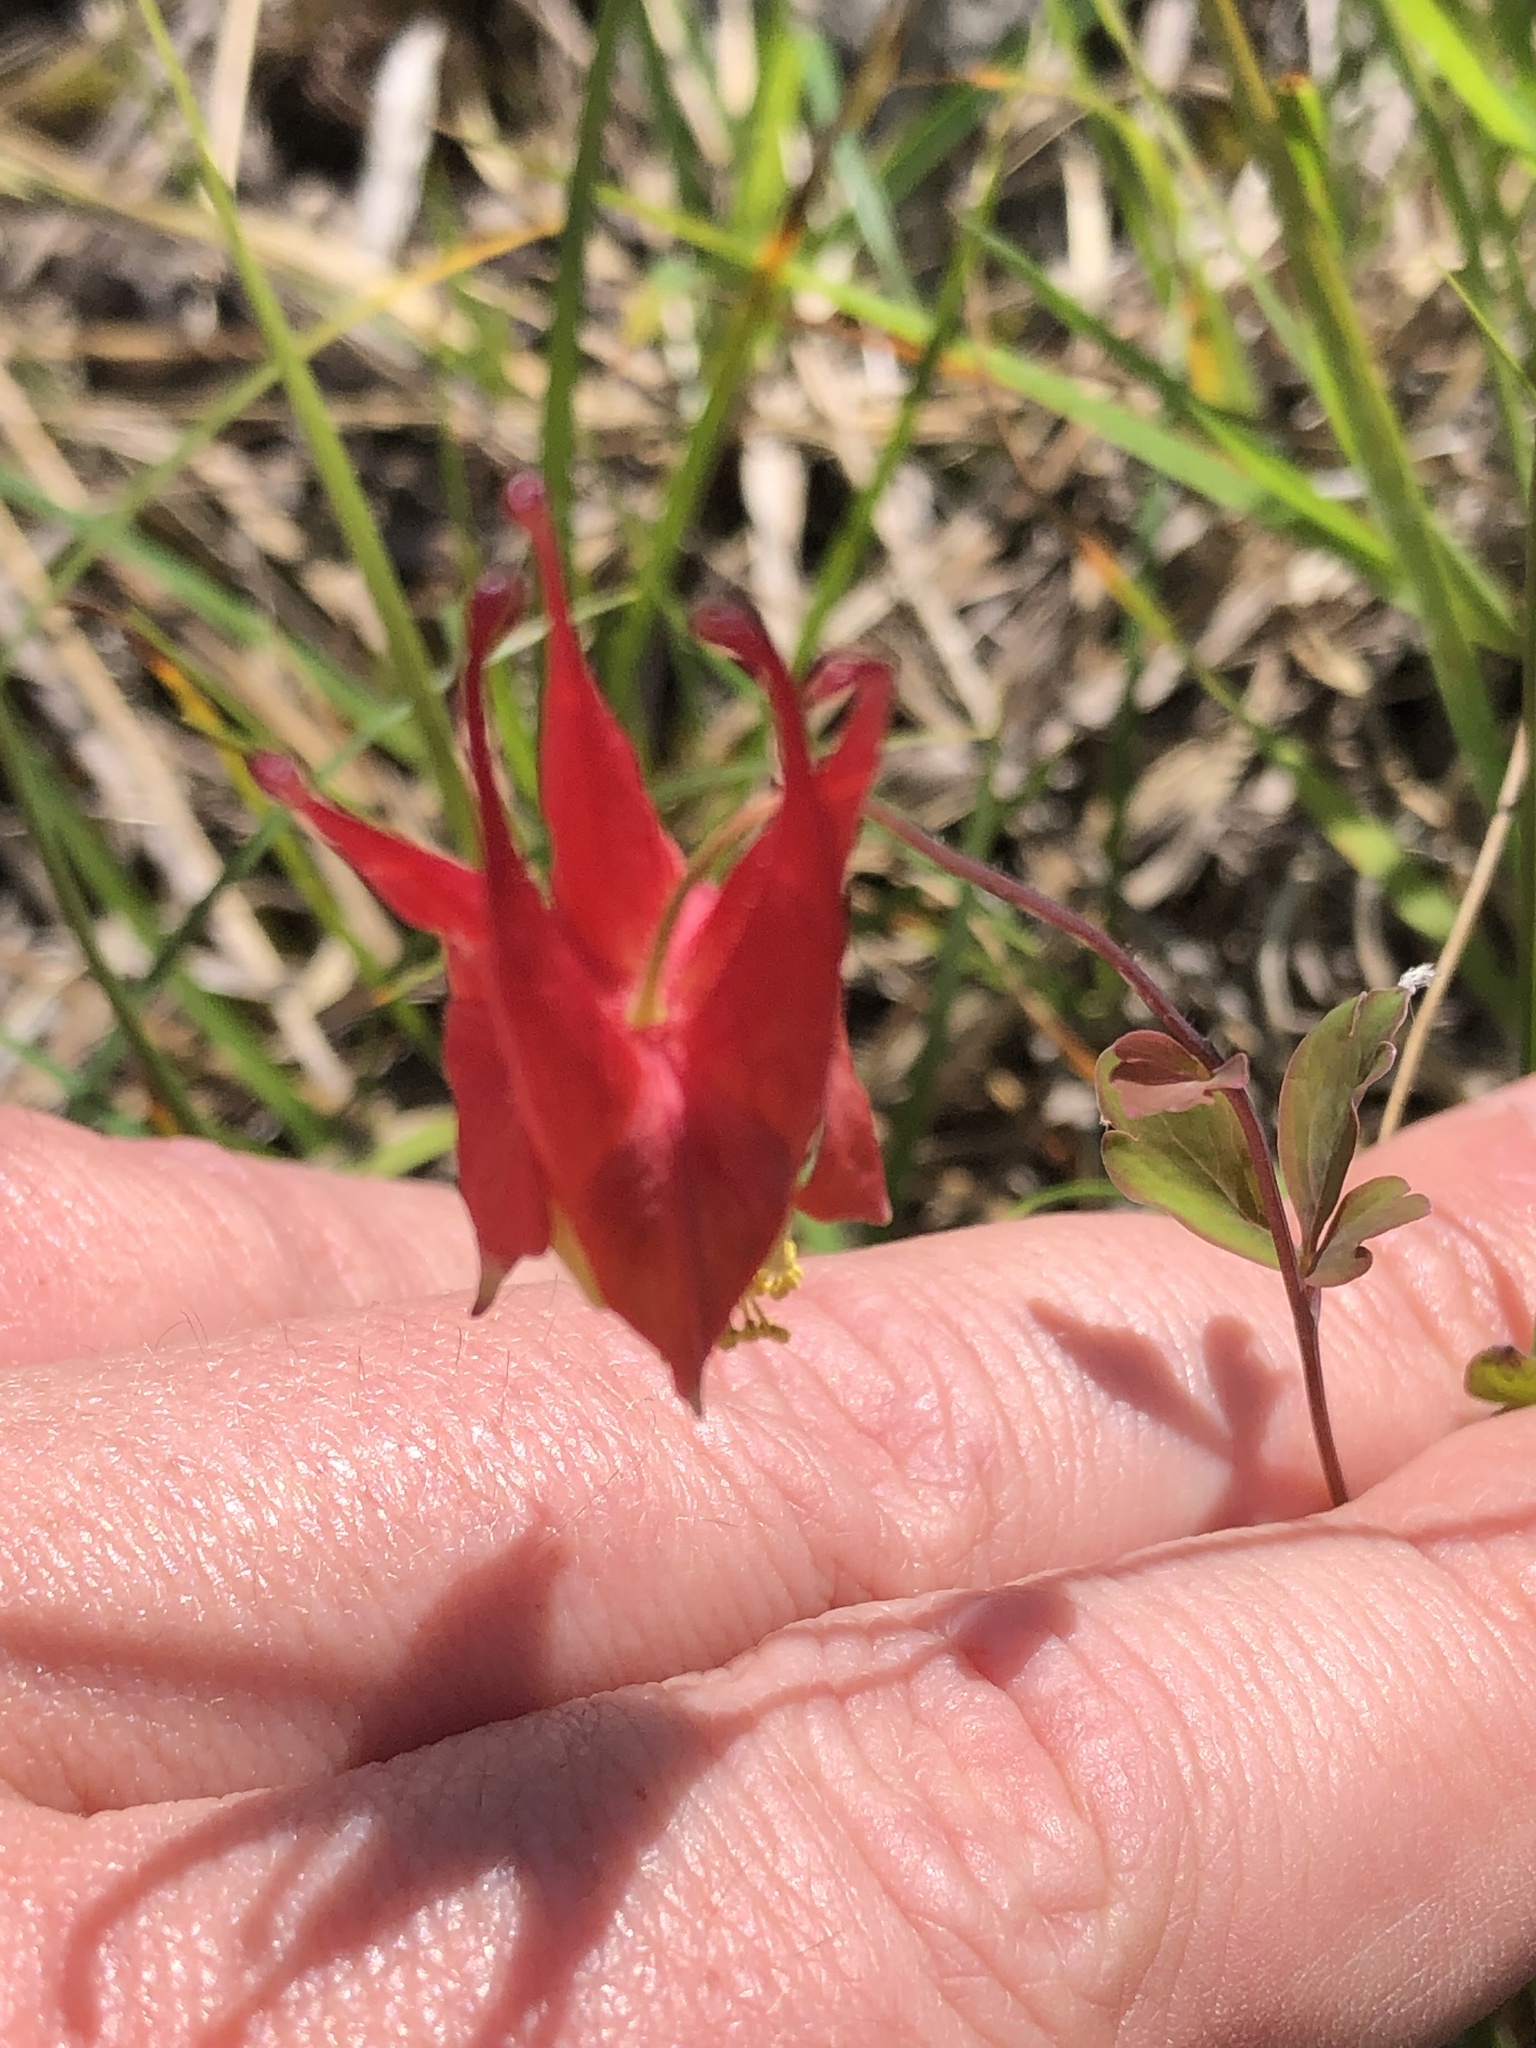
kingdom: Plantae
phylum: Tracheophyta
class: Magnoliopsida
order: Ranunculales
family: Ranunculaceae
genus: Aquilegia
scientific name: Aquilegia canadensis
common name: American columbine
